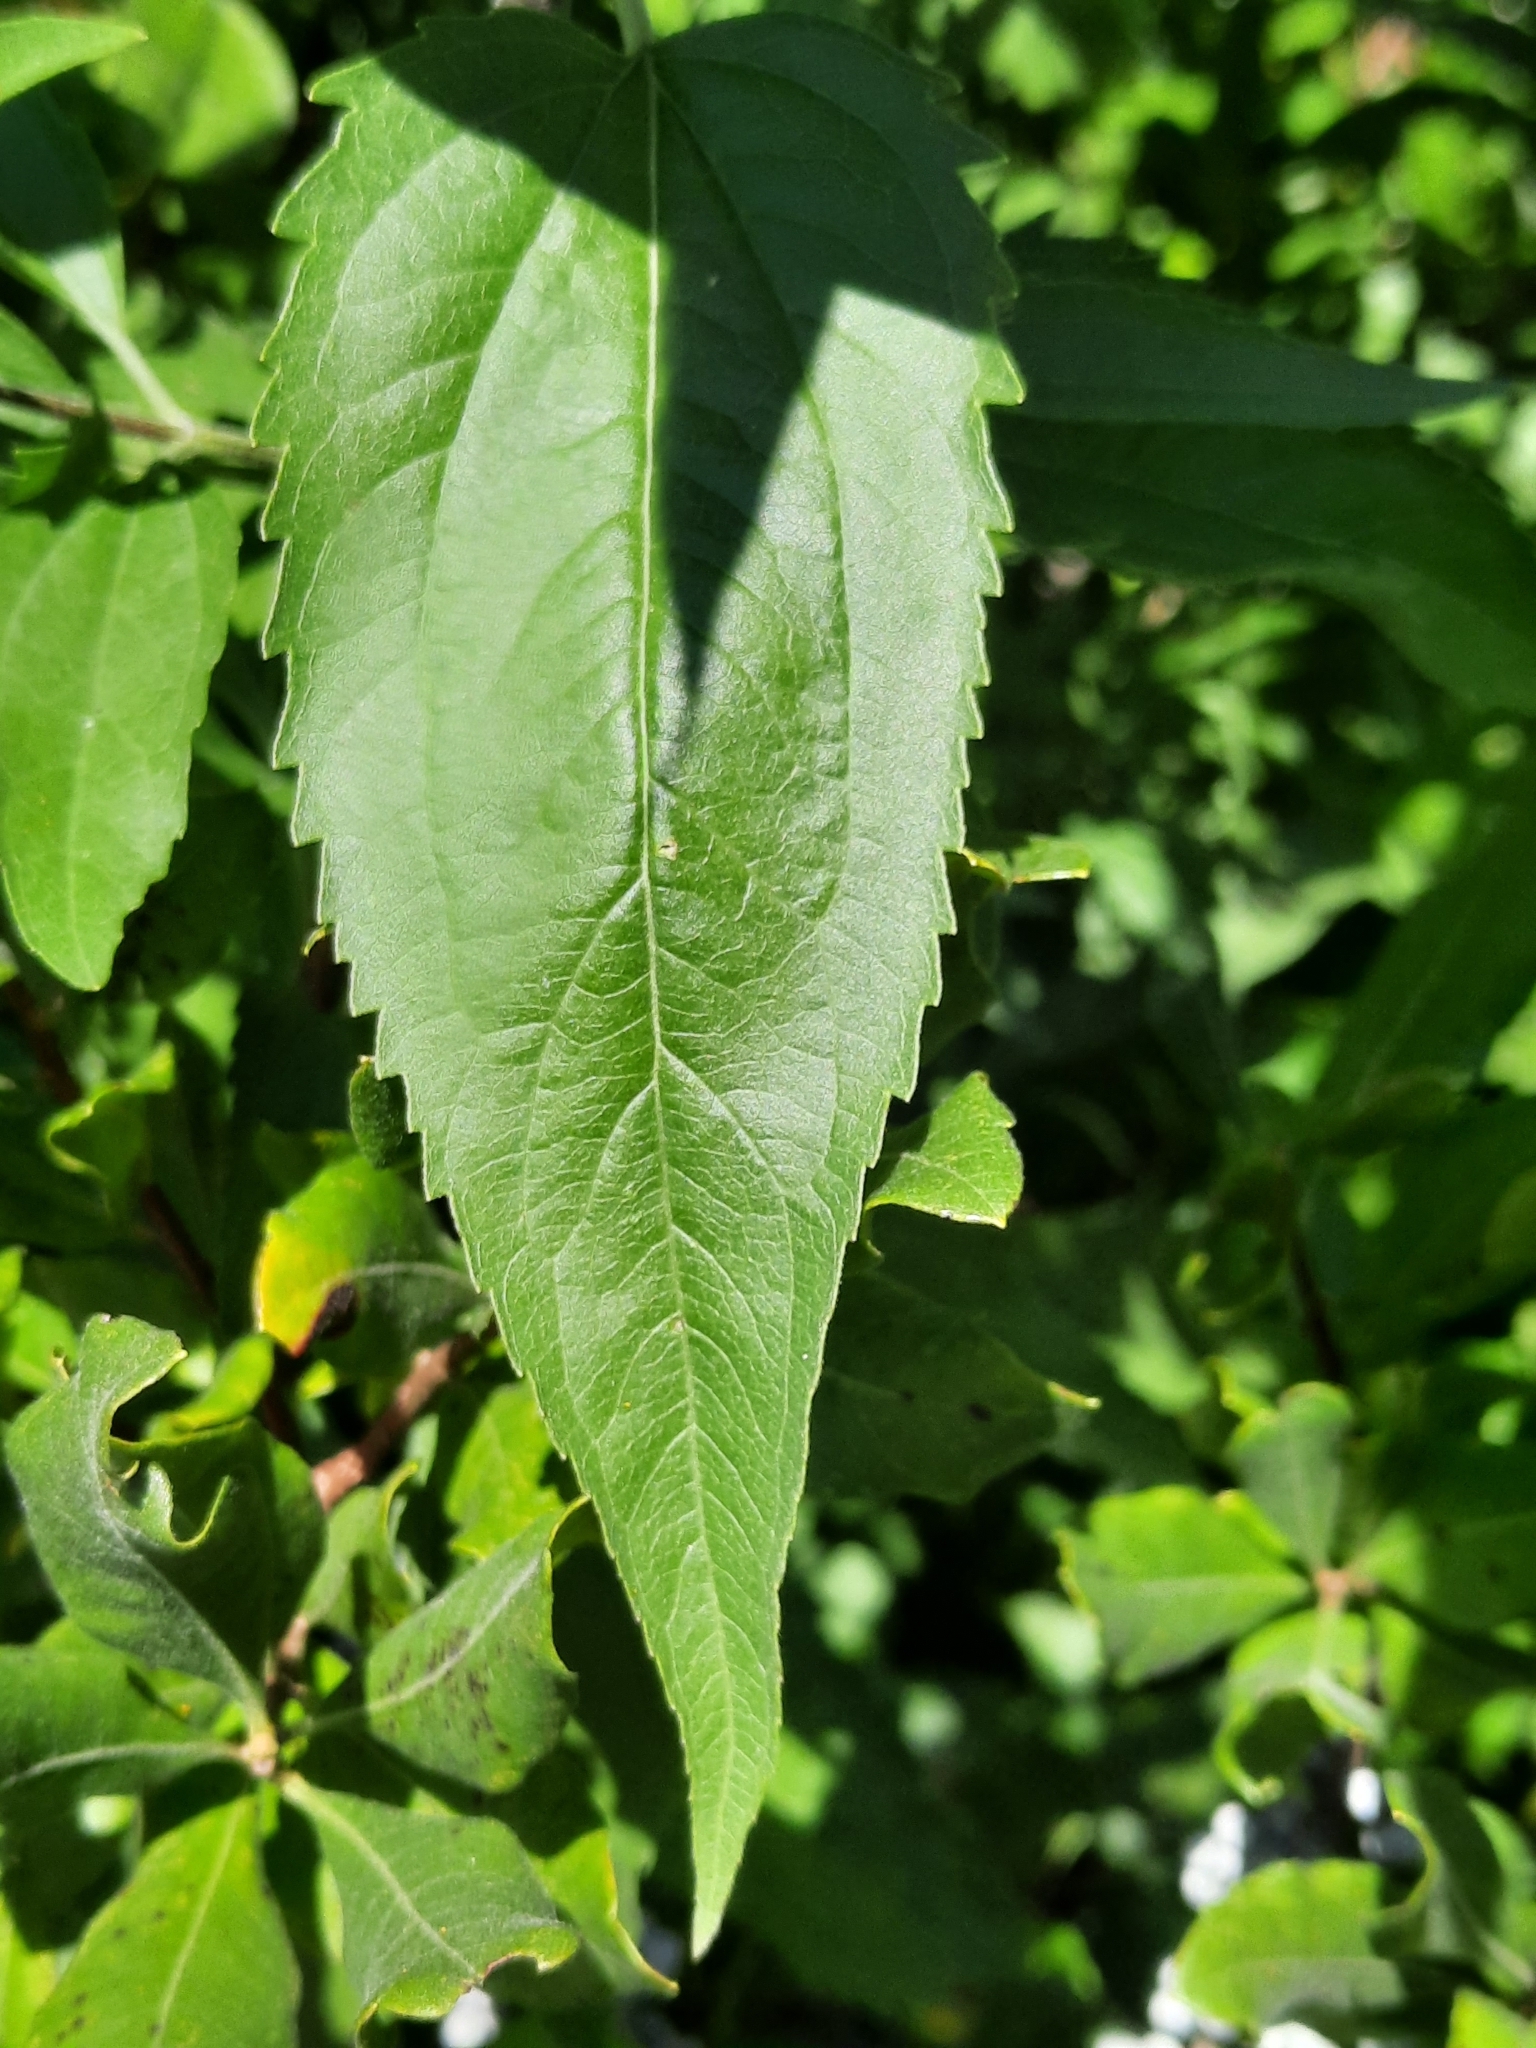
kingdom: Plantae
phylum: Tracheophyta
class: Magnoliopsida
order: Asterales
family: Asteraceae
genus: Eupatorium
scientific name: Eupatorium serotinum
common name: Late boneset
